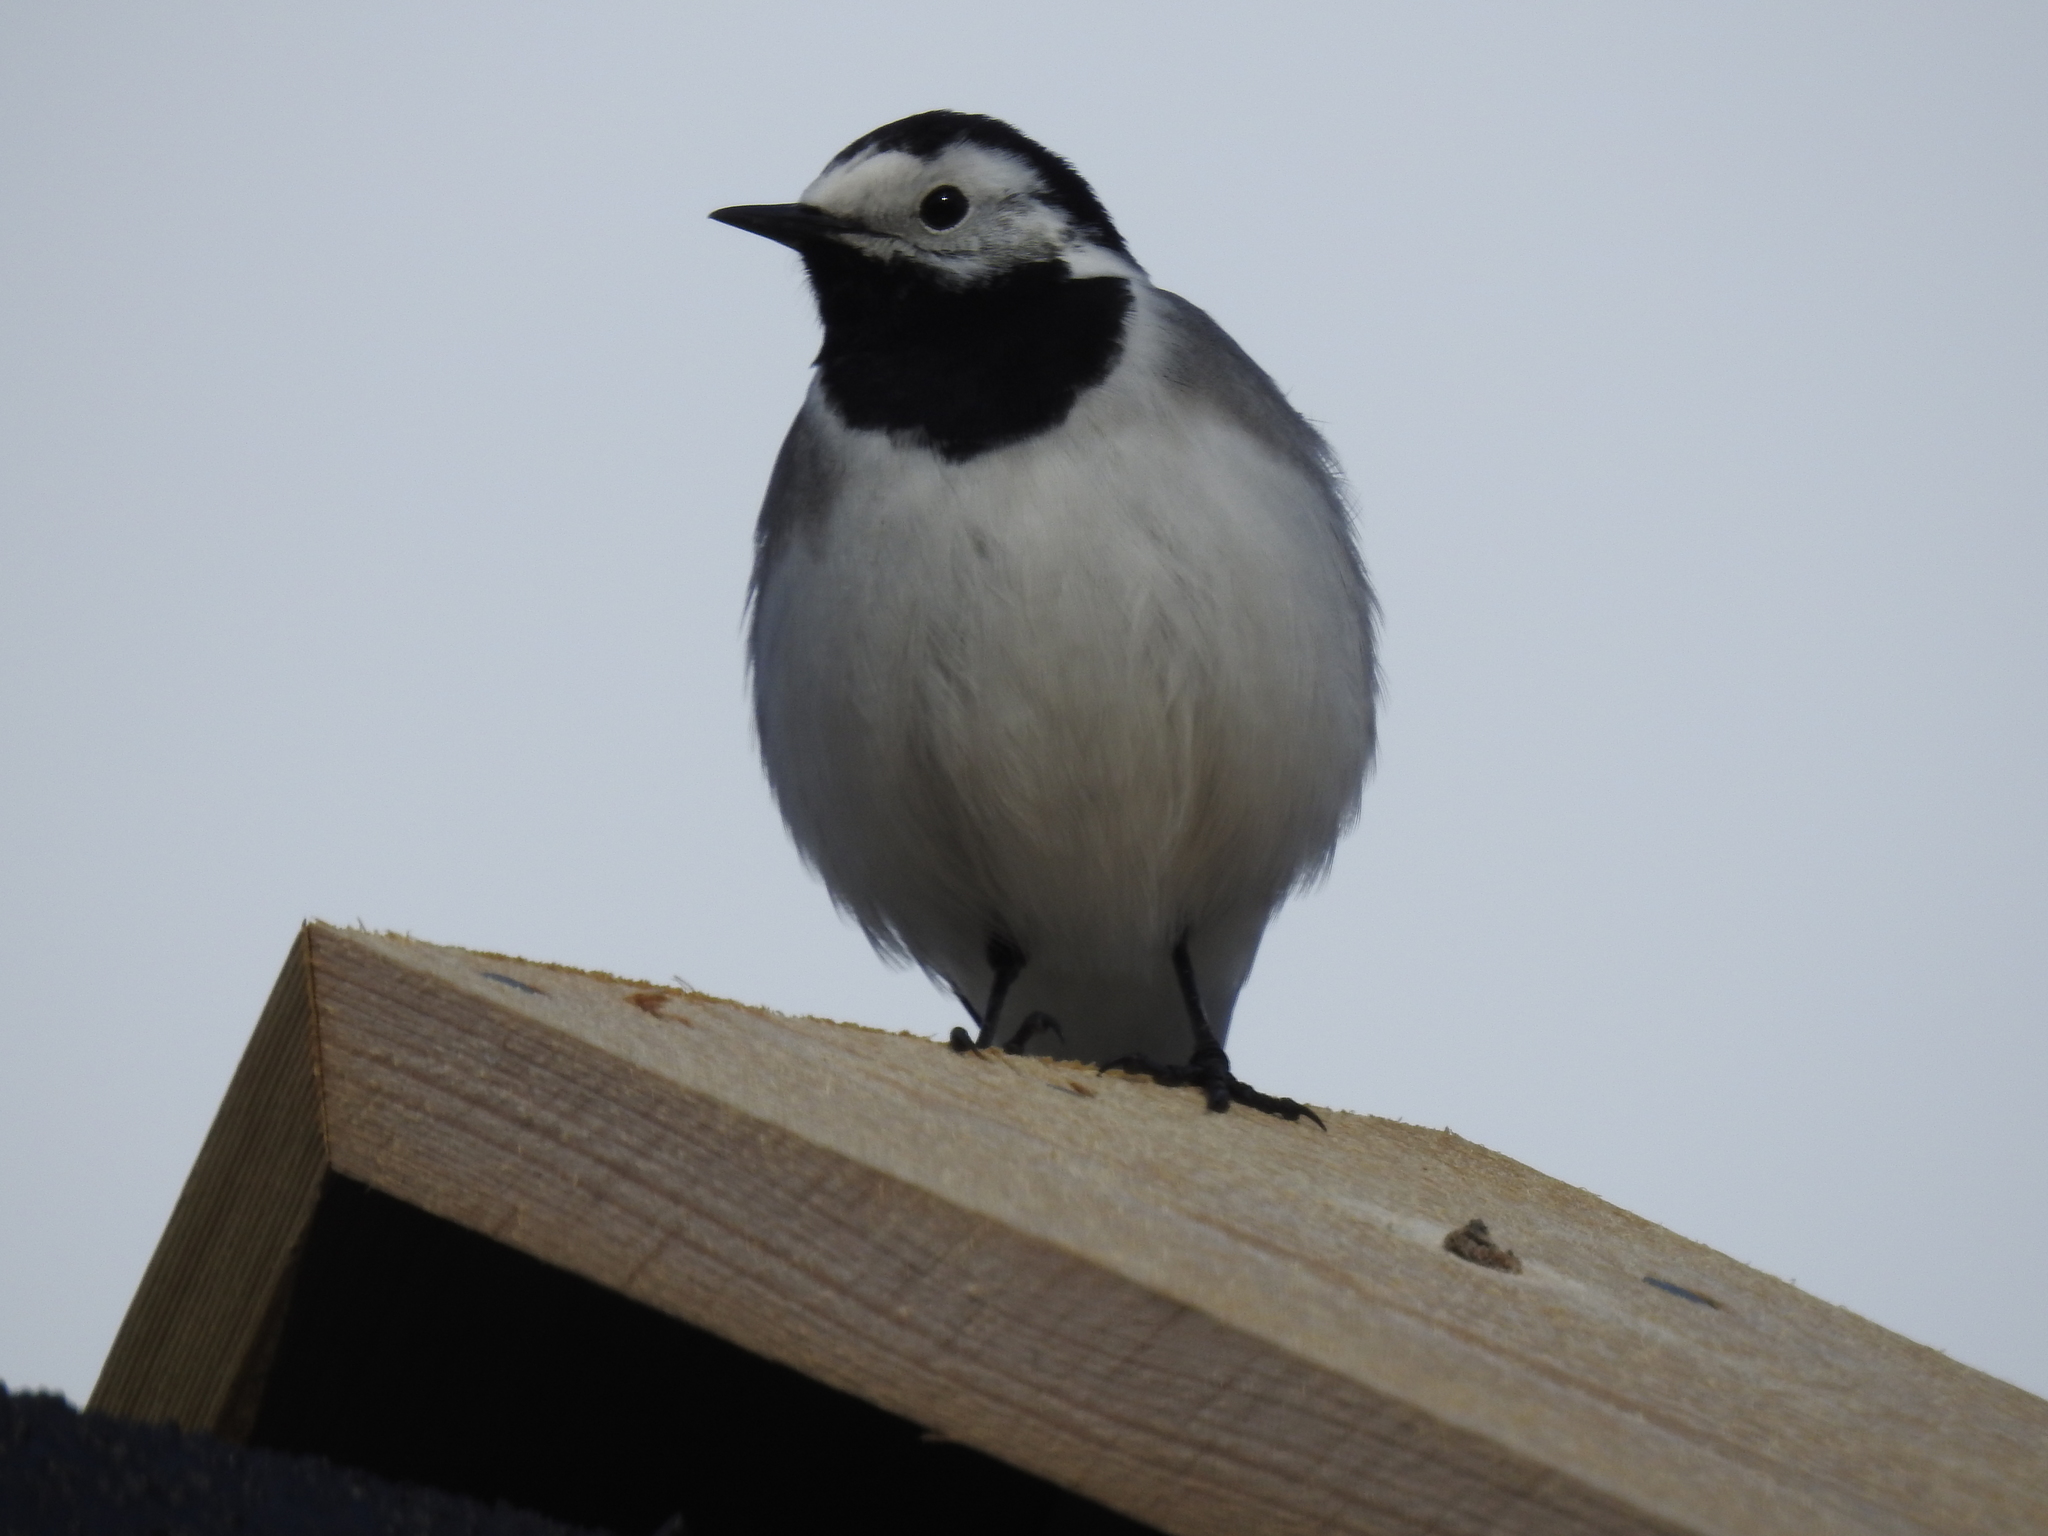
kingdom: Animalia
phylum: Chordata
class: Aves
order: Passeriformes
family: Motacillidae
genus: Motacilla
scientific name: Motacilla alba
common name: White wagtail
